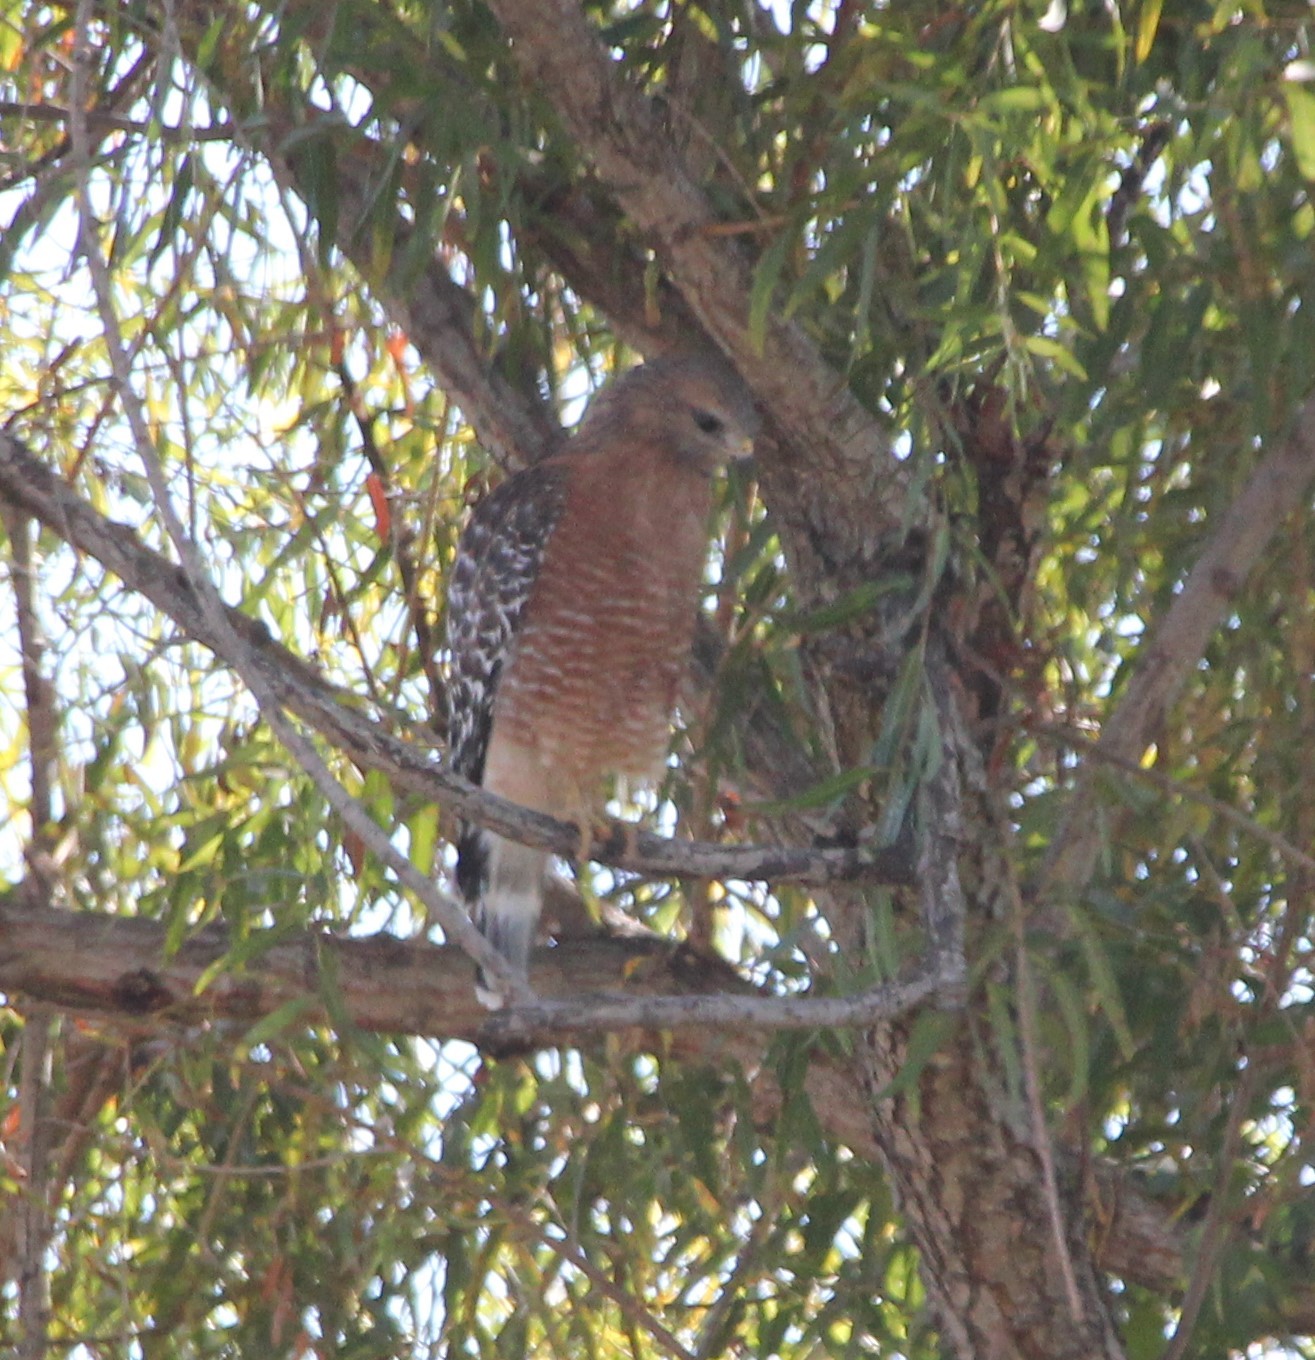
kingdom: Animalia
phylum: Chordata
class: Aves
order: Accipitriformes
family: Accipitridae
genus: Buteo
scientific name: Buteo lineatus
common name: Red-shouldered hawk
